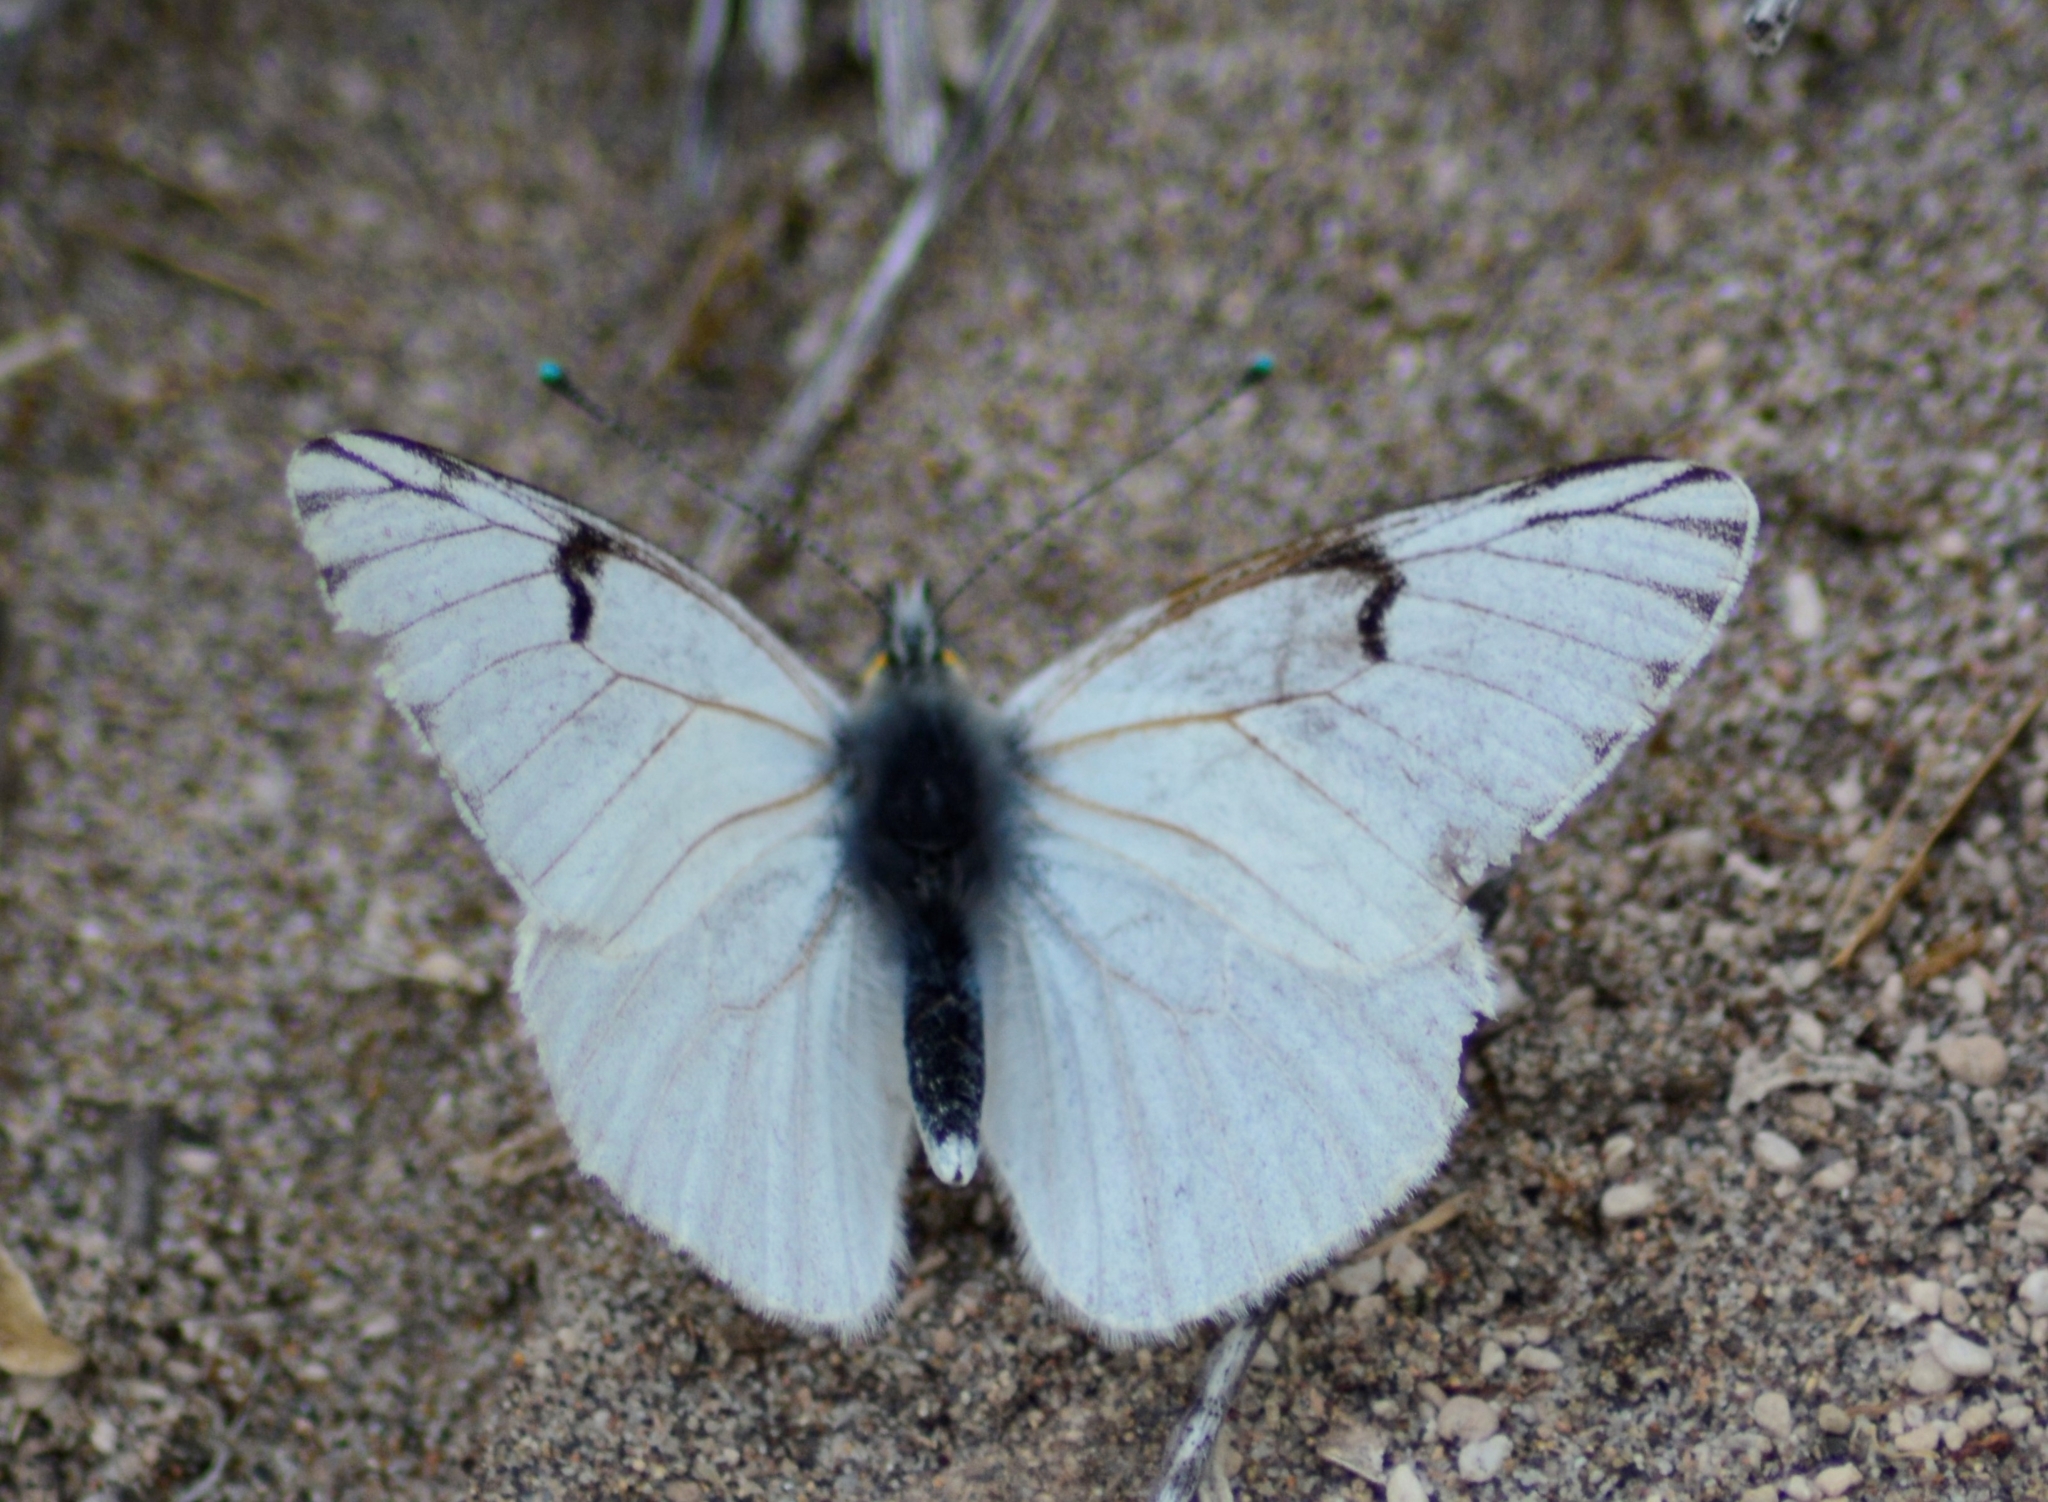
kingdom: Animalia
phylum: Arthropoda
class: Insecta
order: Lepidoptera
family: Pieridae
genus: Tatochila
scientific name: Tatochila mercedis
